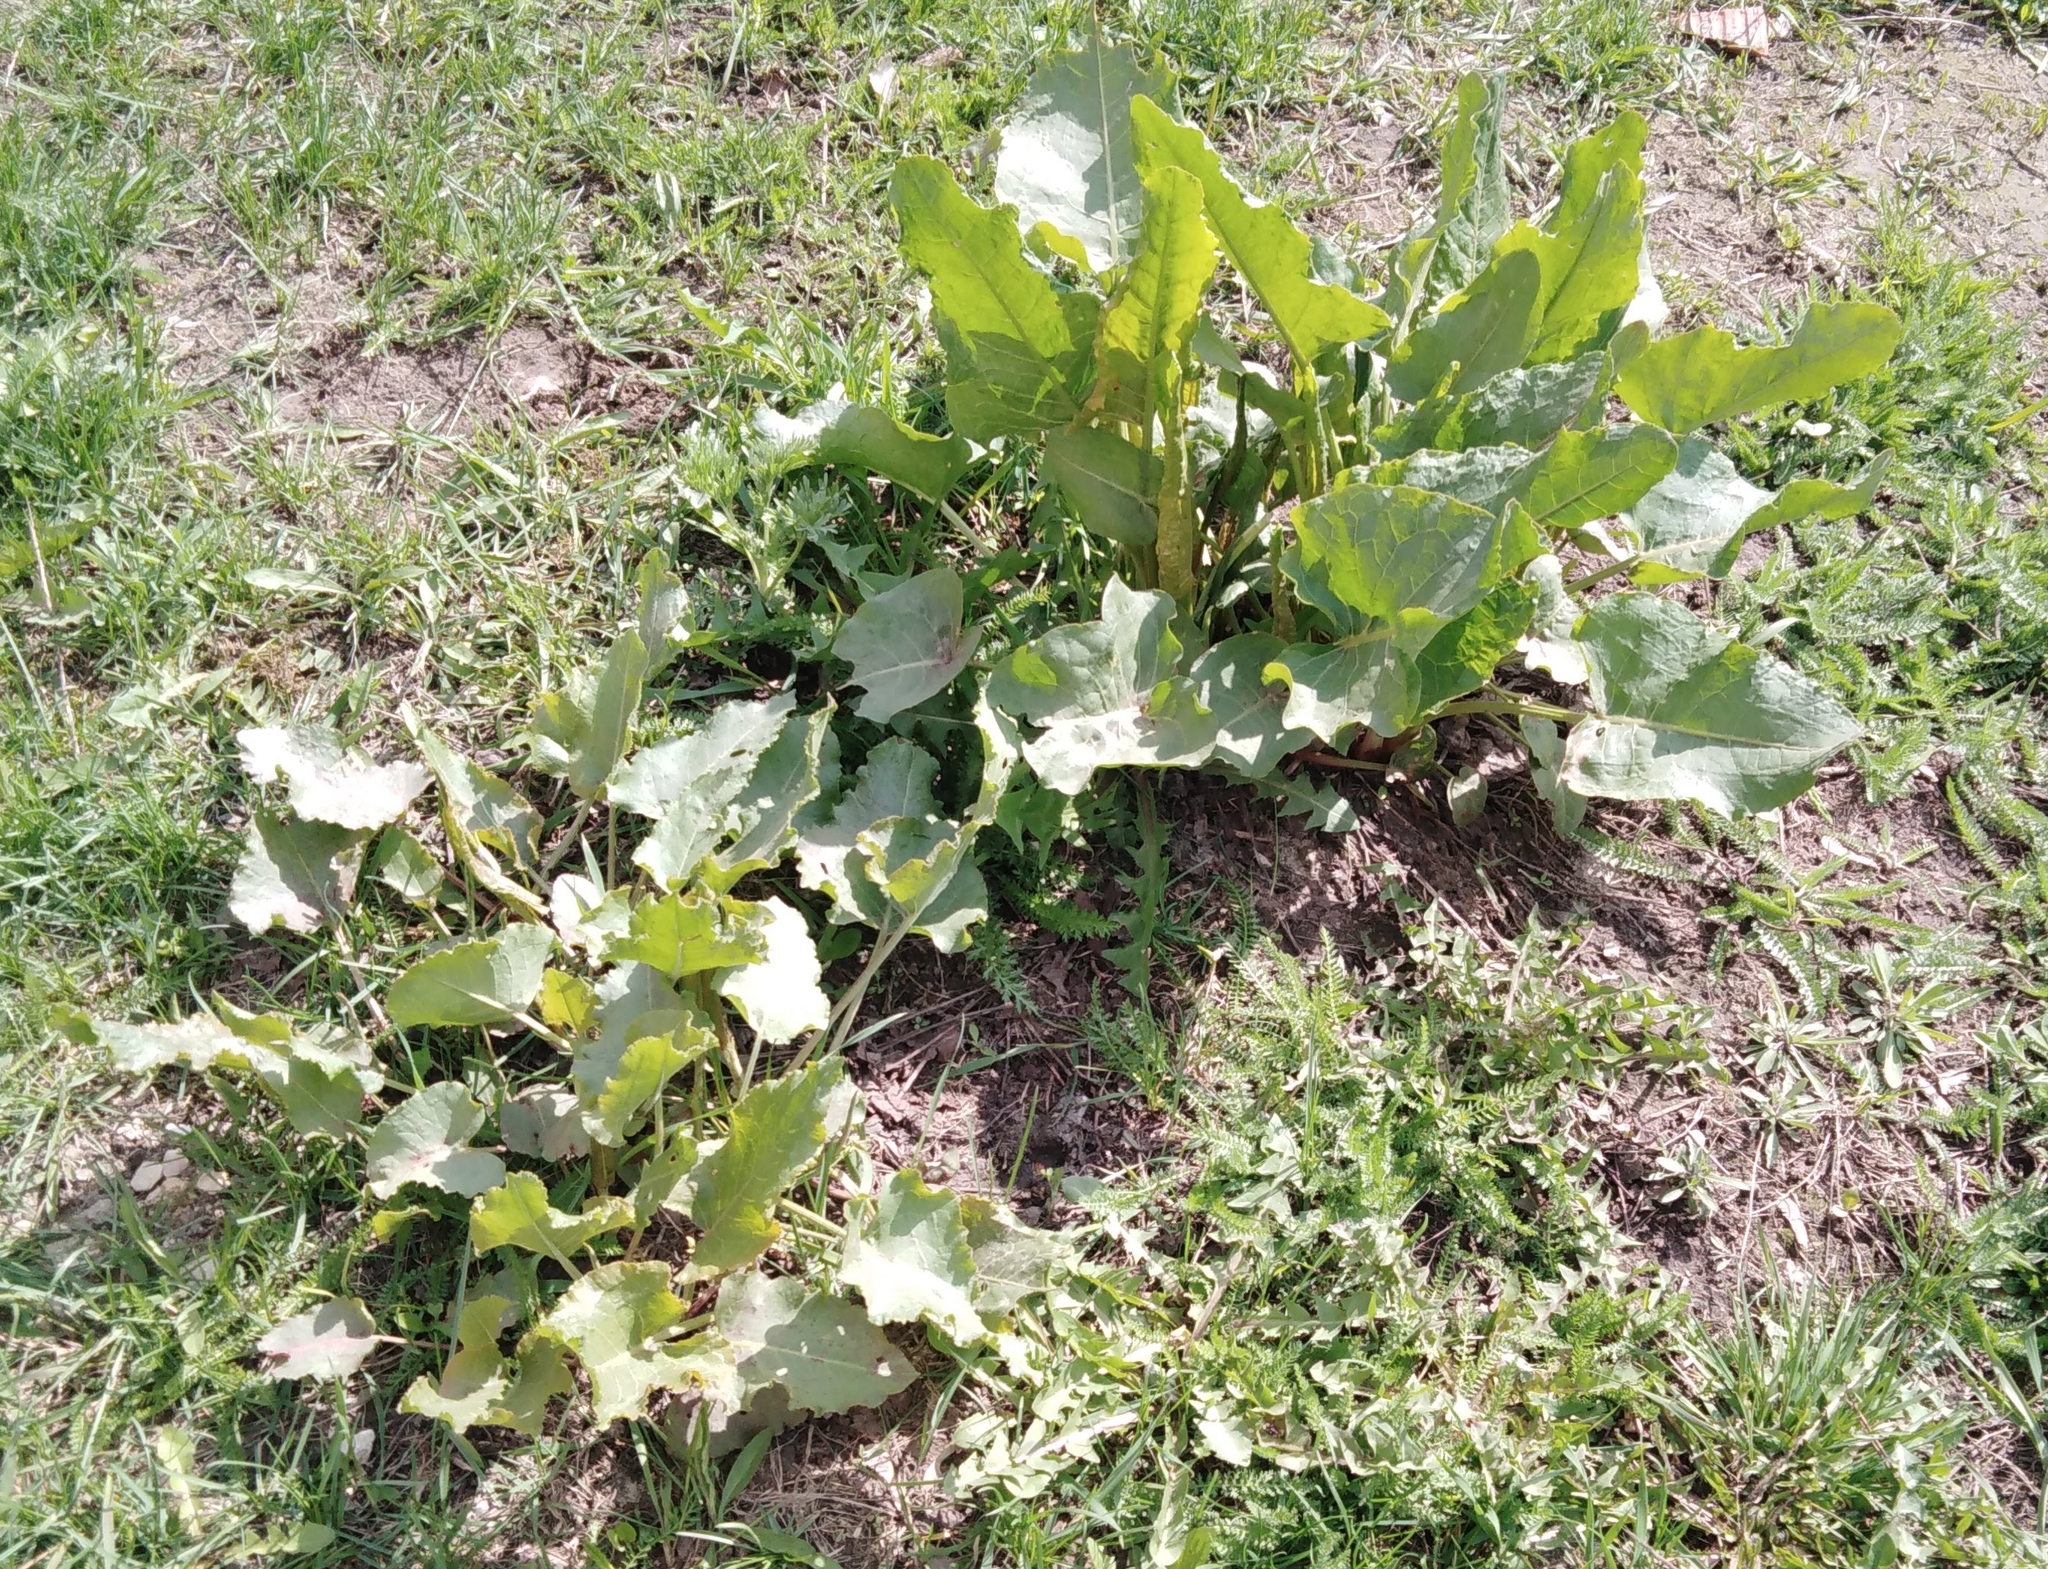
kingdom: Plantae
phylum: Tracheophyta
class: Magnoliopsida
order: Caryophyllales
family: Polygonaceae
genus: Rumex
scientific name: Rumex confertus
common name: Russian dock
